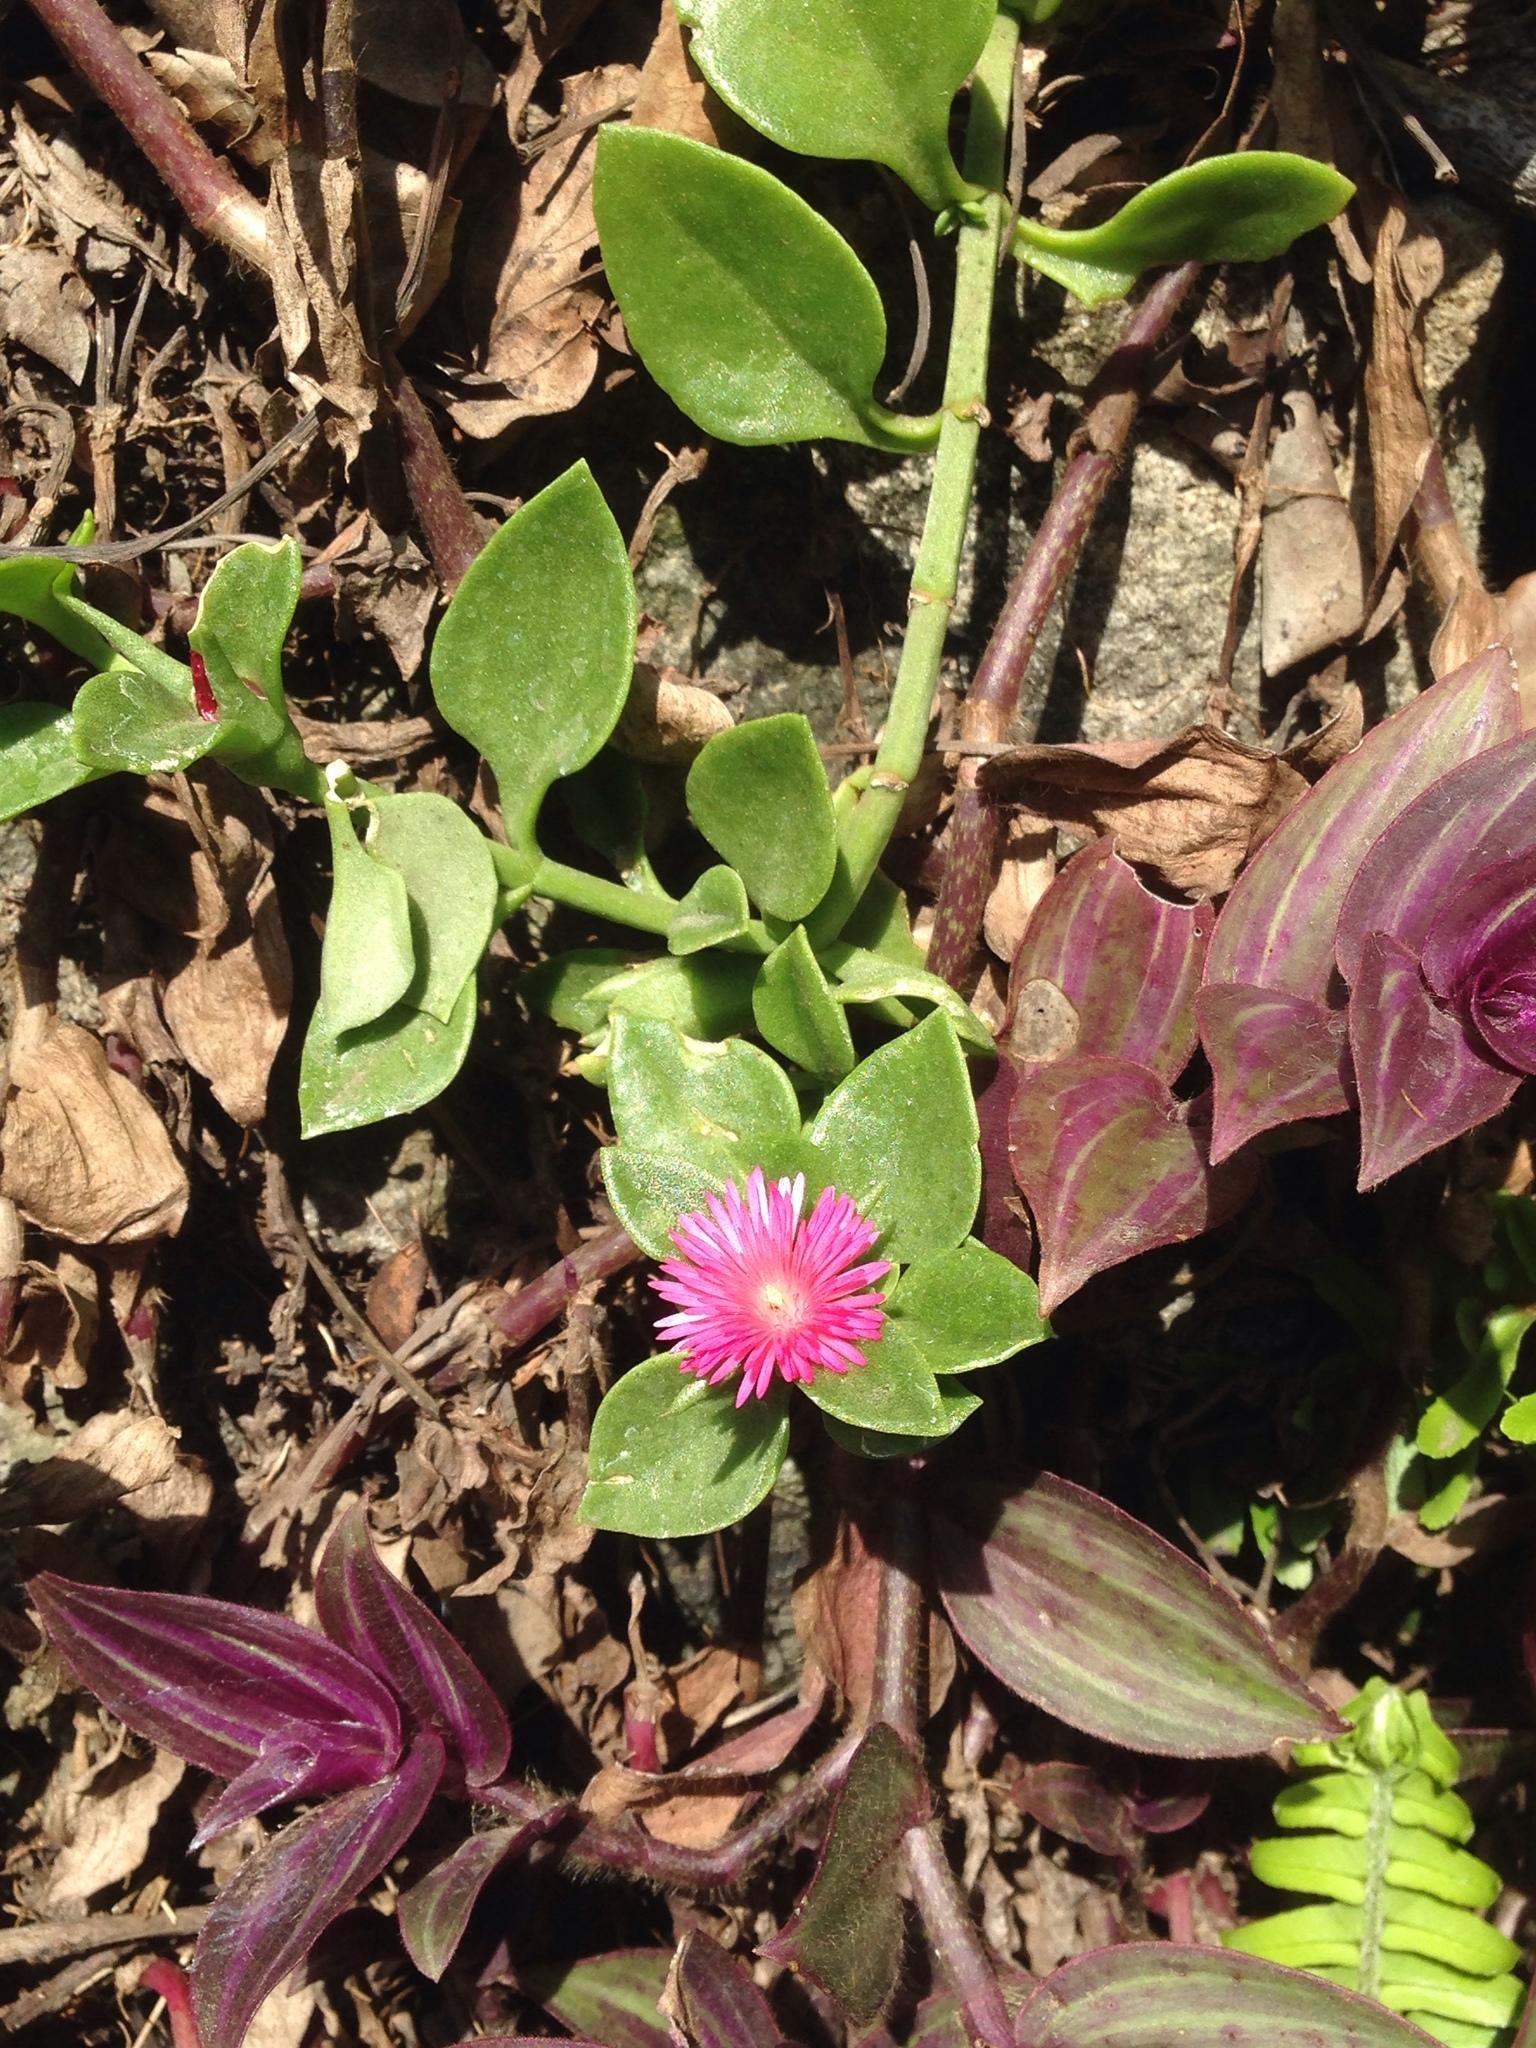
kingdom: Plantae
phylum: Tracheophyta
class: Magnoliopsida
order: Caryophyllales
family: Aizoaceae
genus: Mesembryanthemum
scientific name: Mesembryanthemum cordifolium
